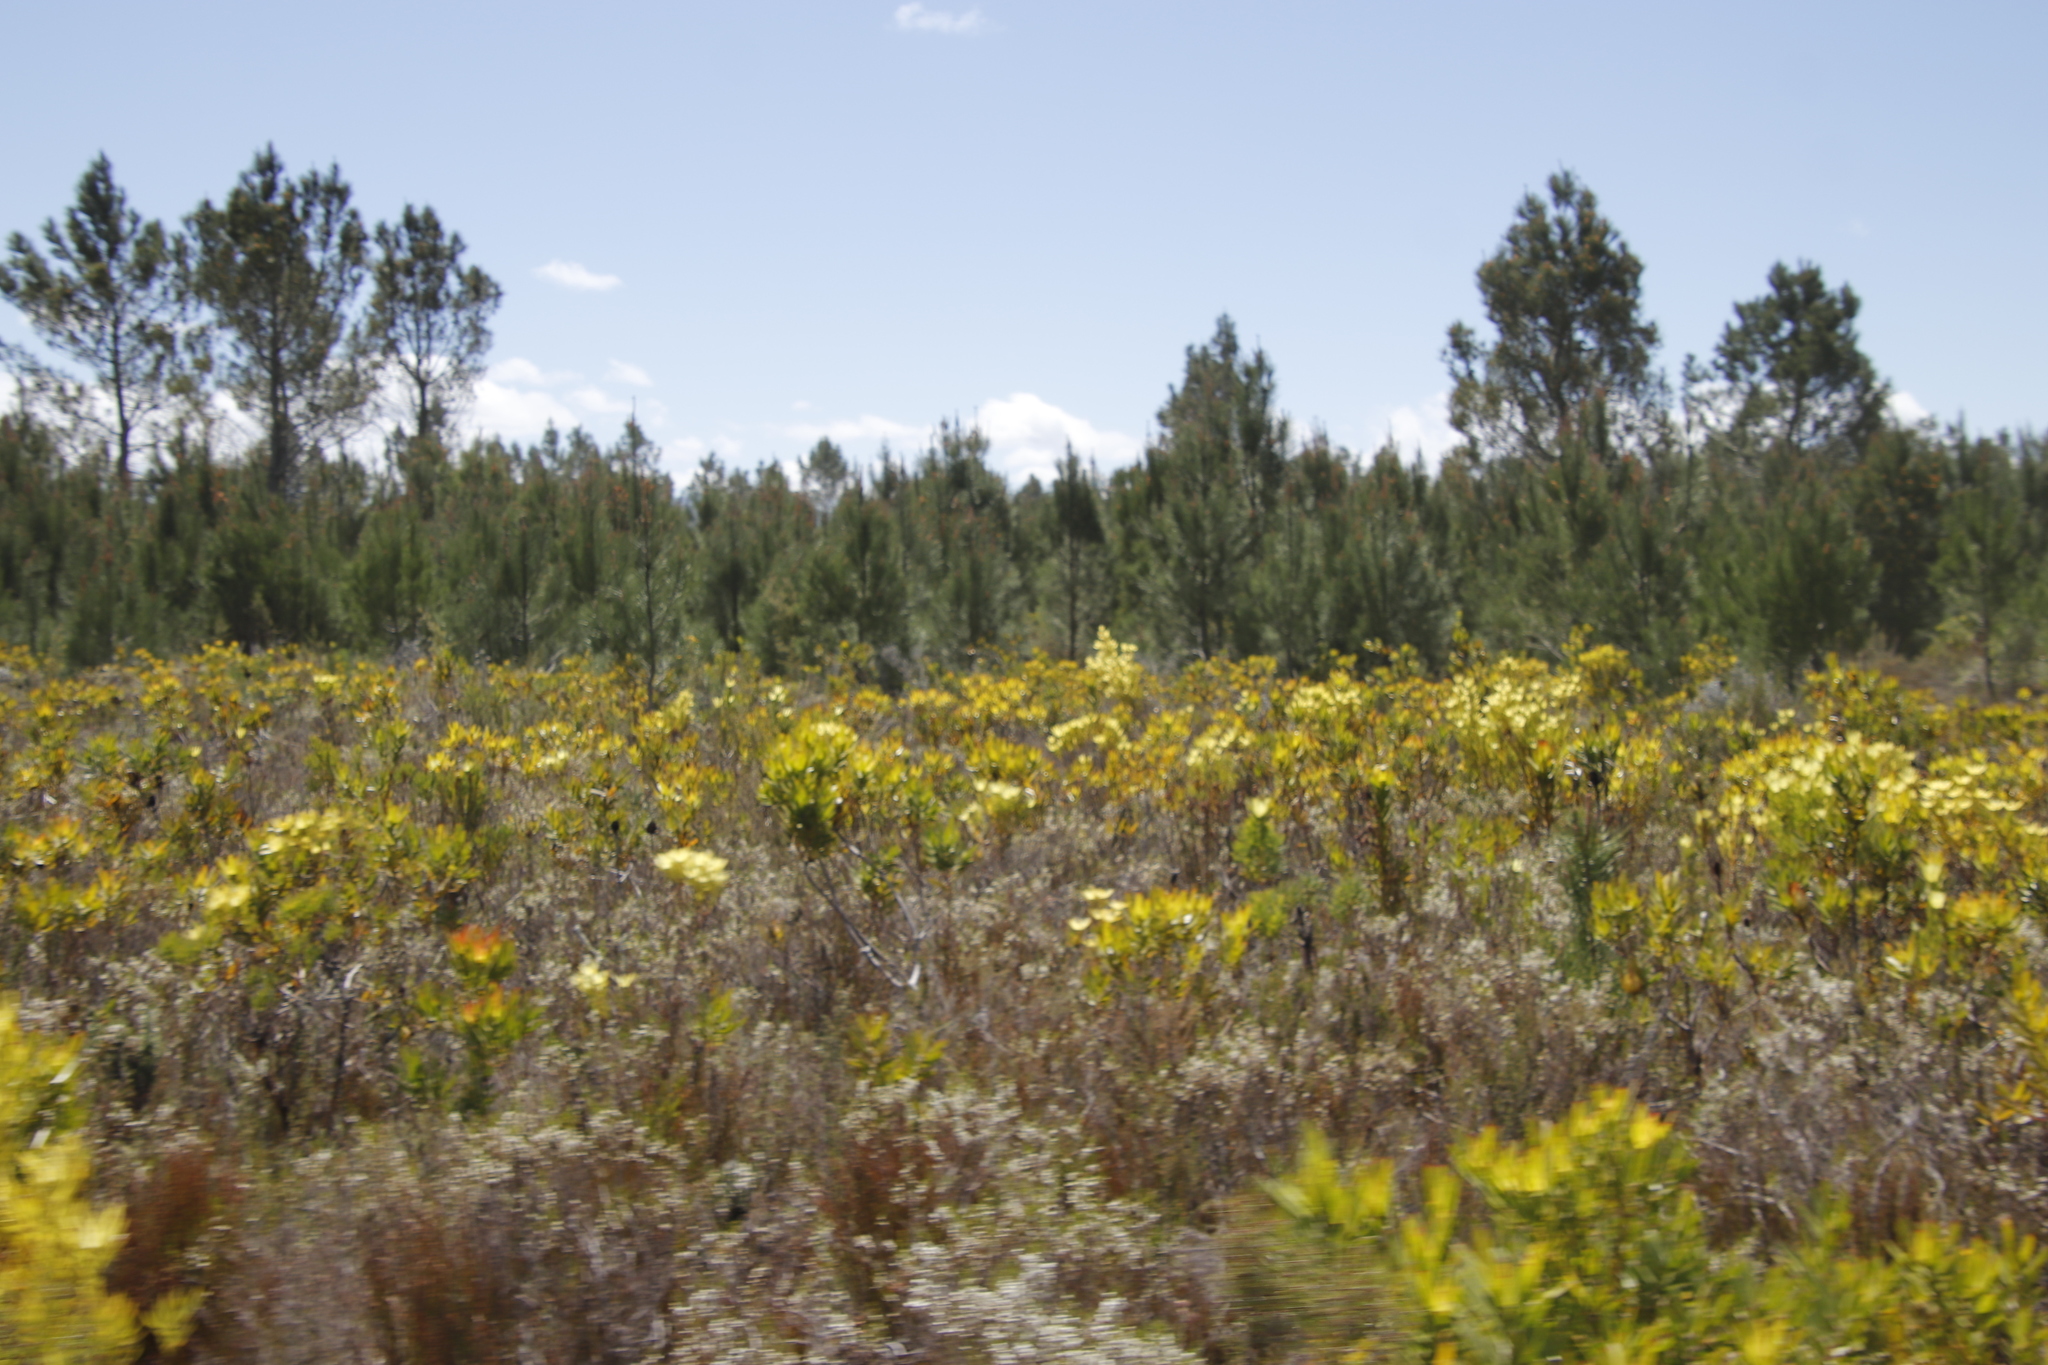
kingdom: Plantae
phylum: Tracheophyta
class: Magnoliopsida
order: Proteales
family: Proteaceae
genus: Leucadendron
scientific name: Leucadendron laureolum
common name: Golden sunshinebush
